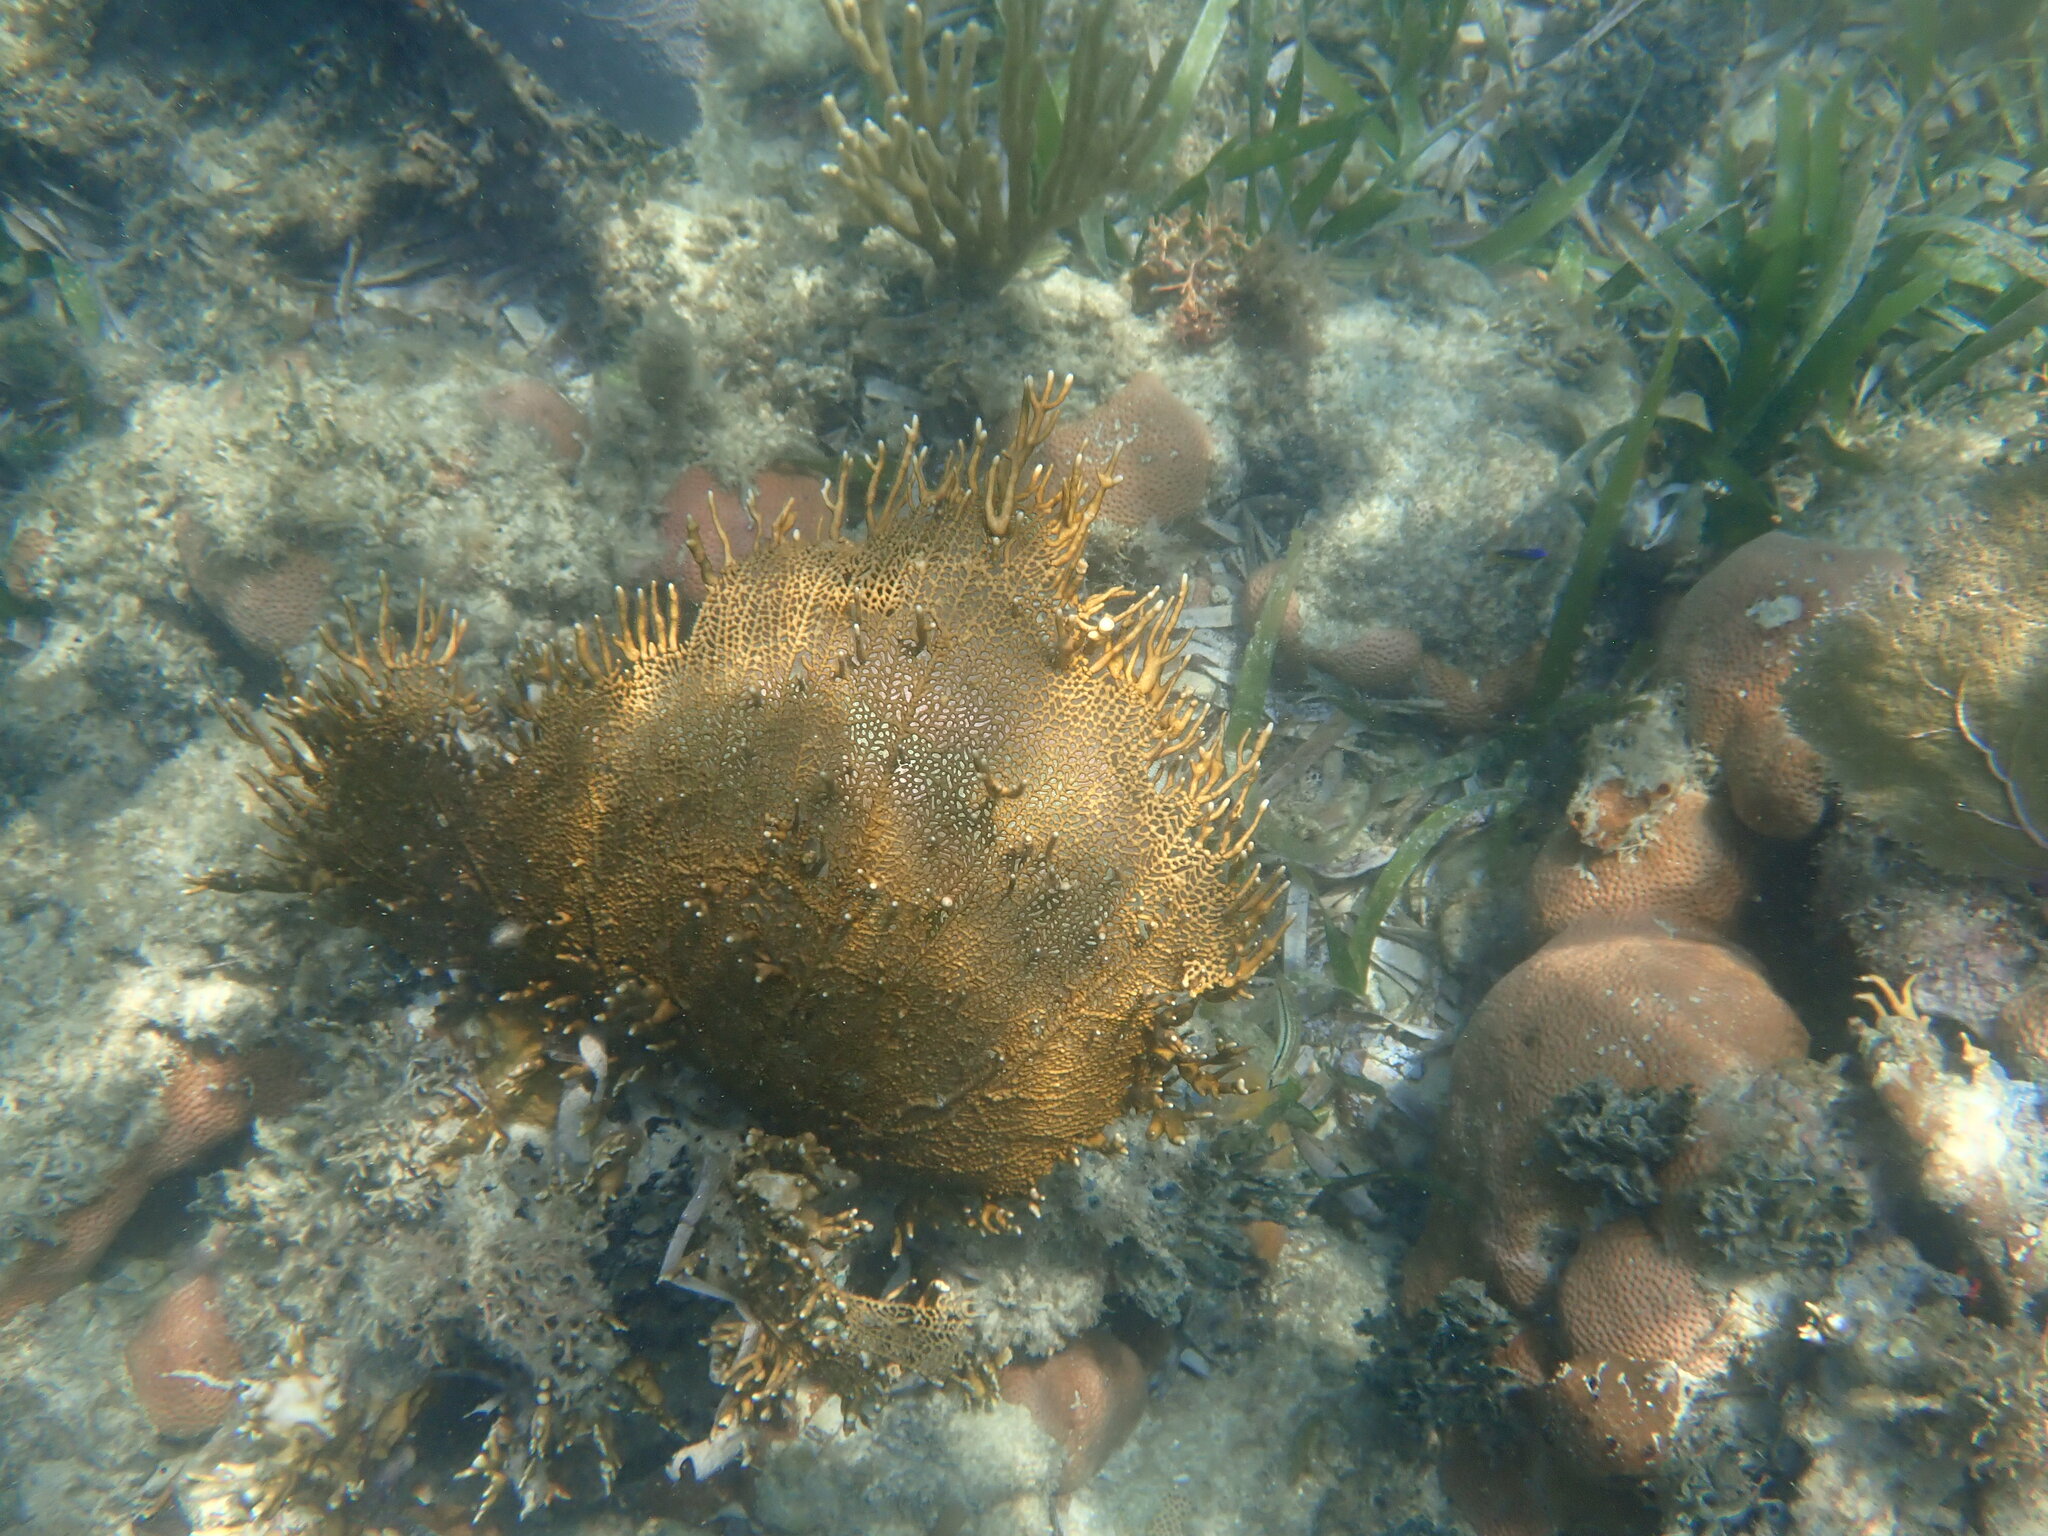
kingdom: Animalia
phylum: Cnidaria
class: Hydrozoa
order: Anthoathecata
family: Milleporidae
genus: Millepora
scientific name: Millepora alcicornis
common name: Branching fire coral
